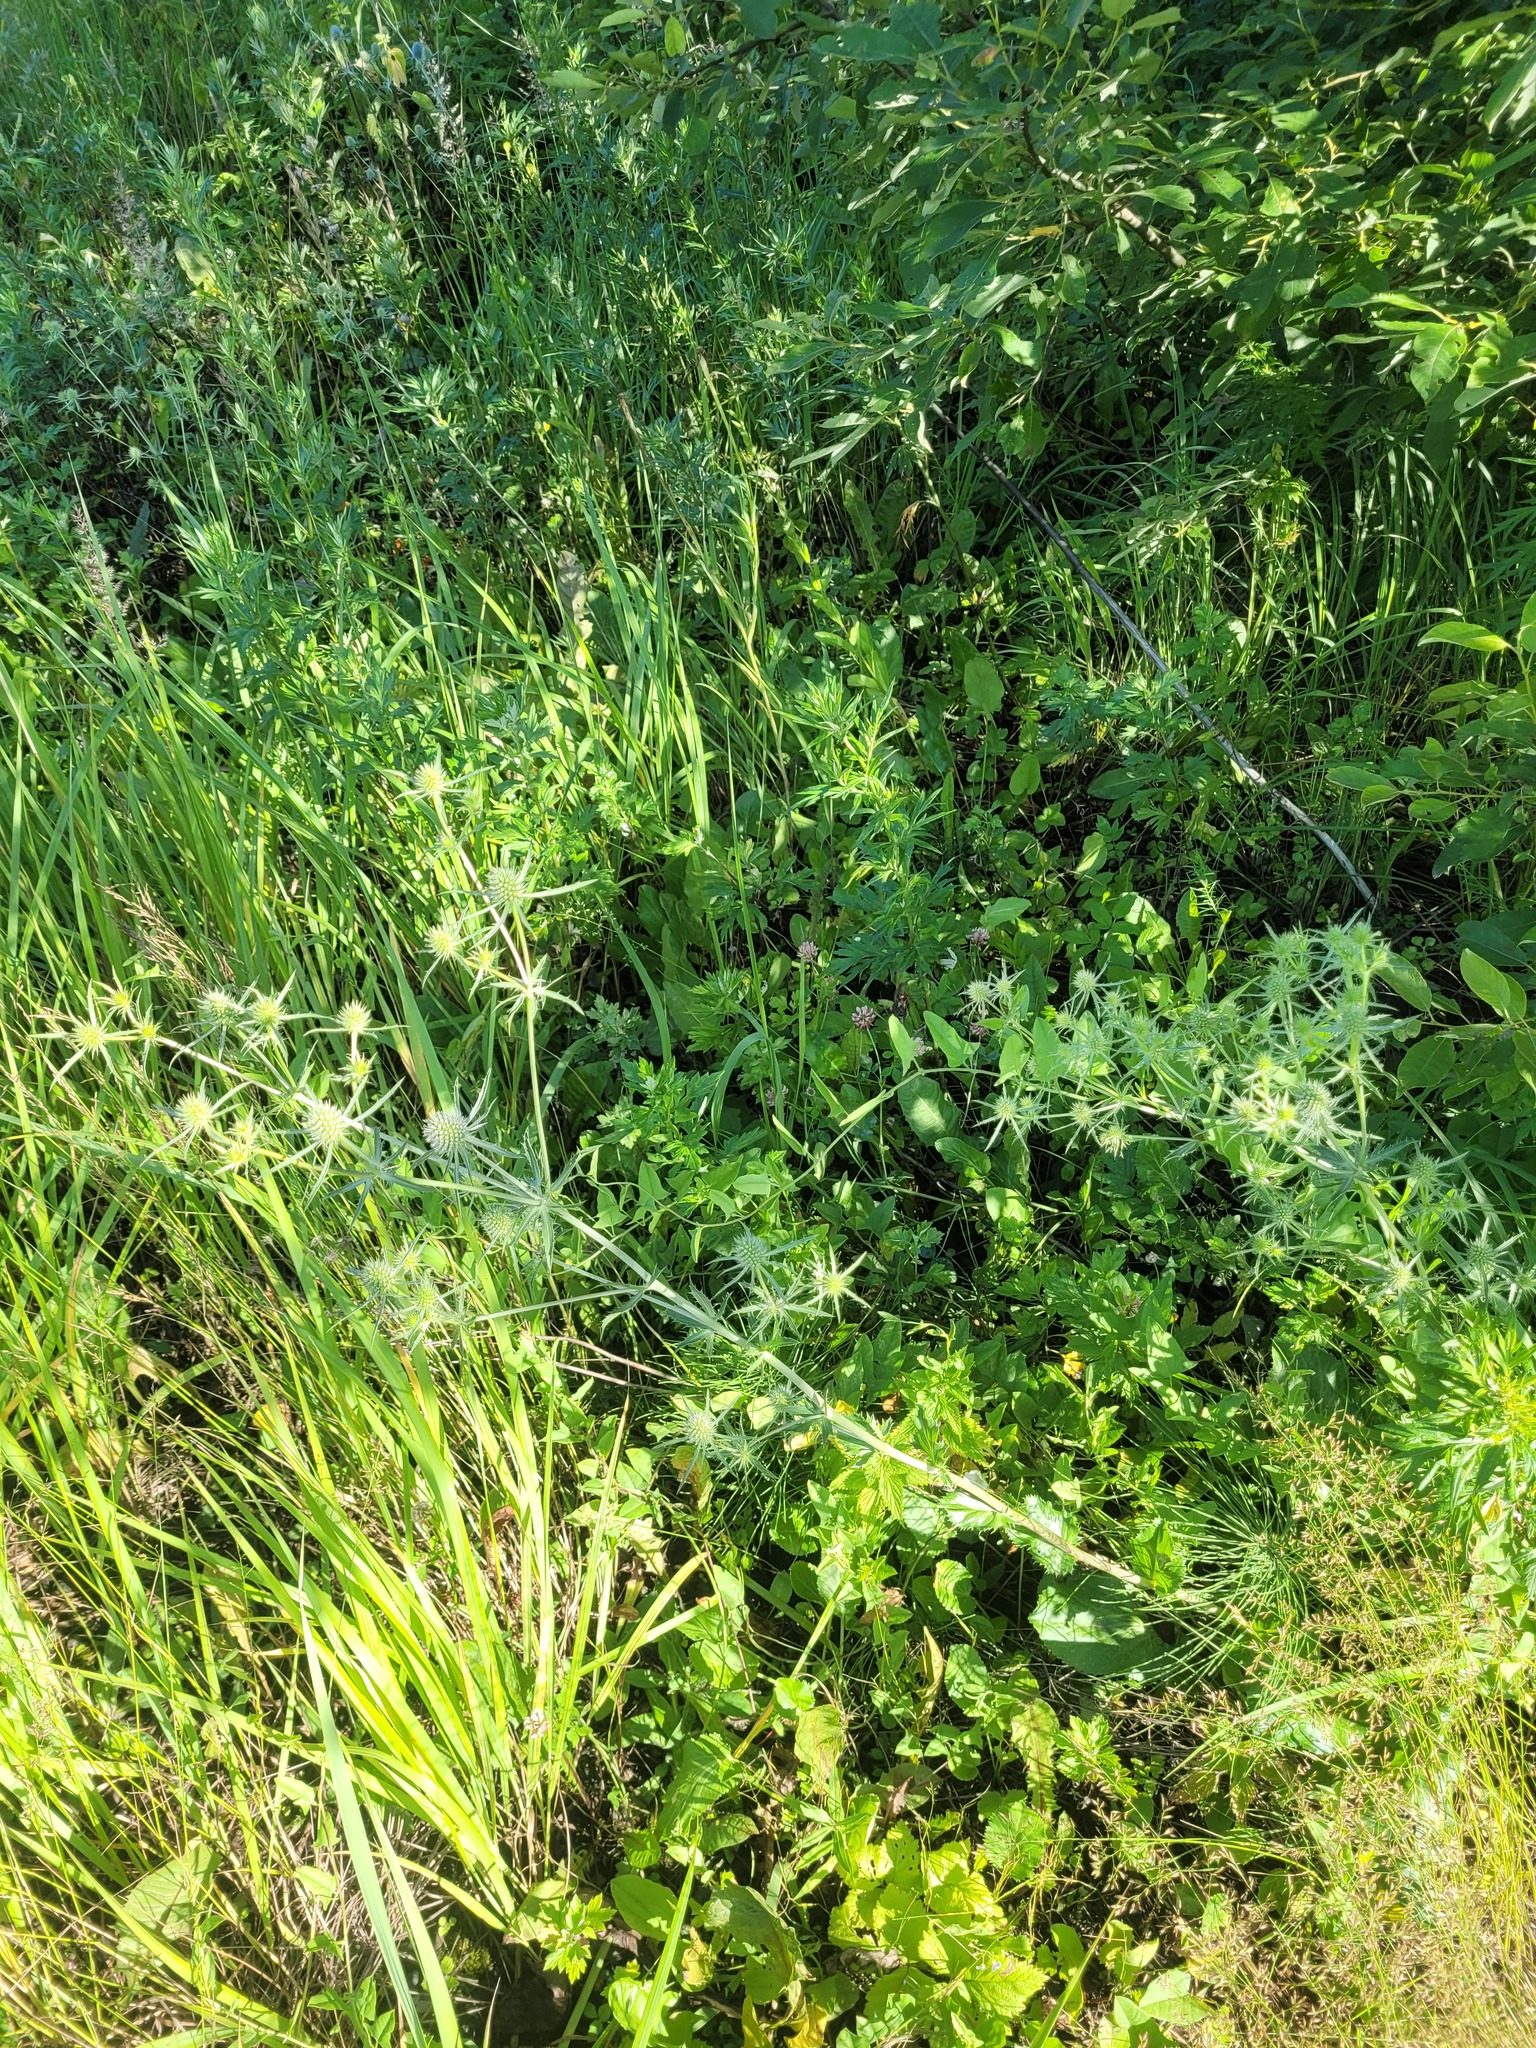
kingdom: Plantae
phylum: Tracheophyta
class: Magnoliopsida
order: Apiales
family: Apiaceae
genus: Eryngium
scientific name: Eryngium planum
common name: Blue eryngo
